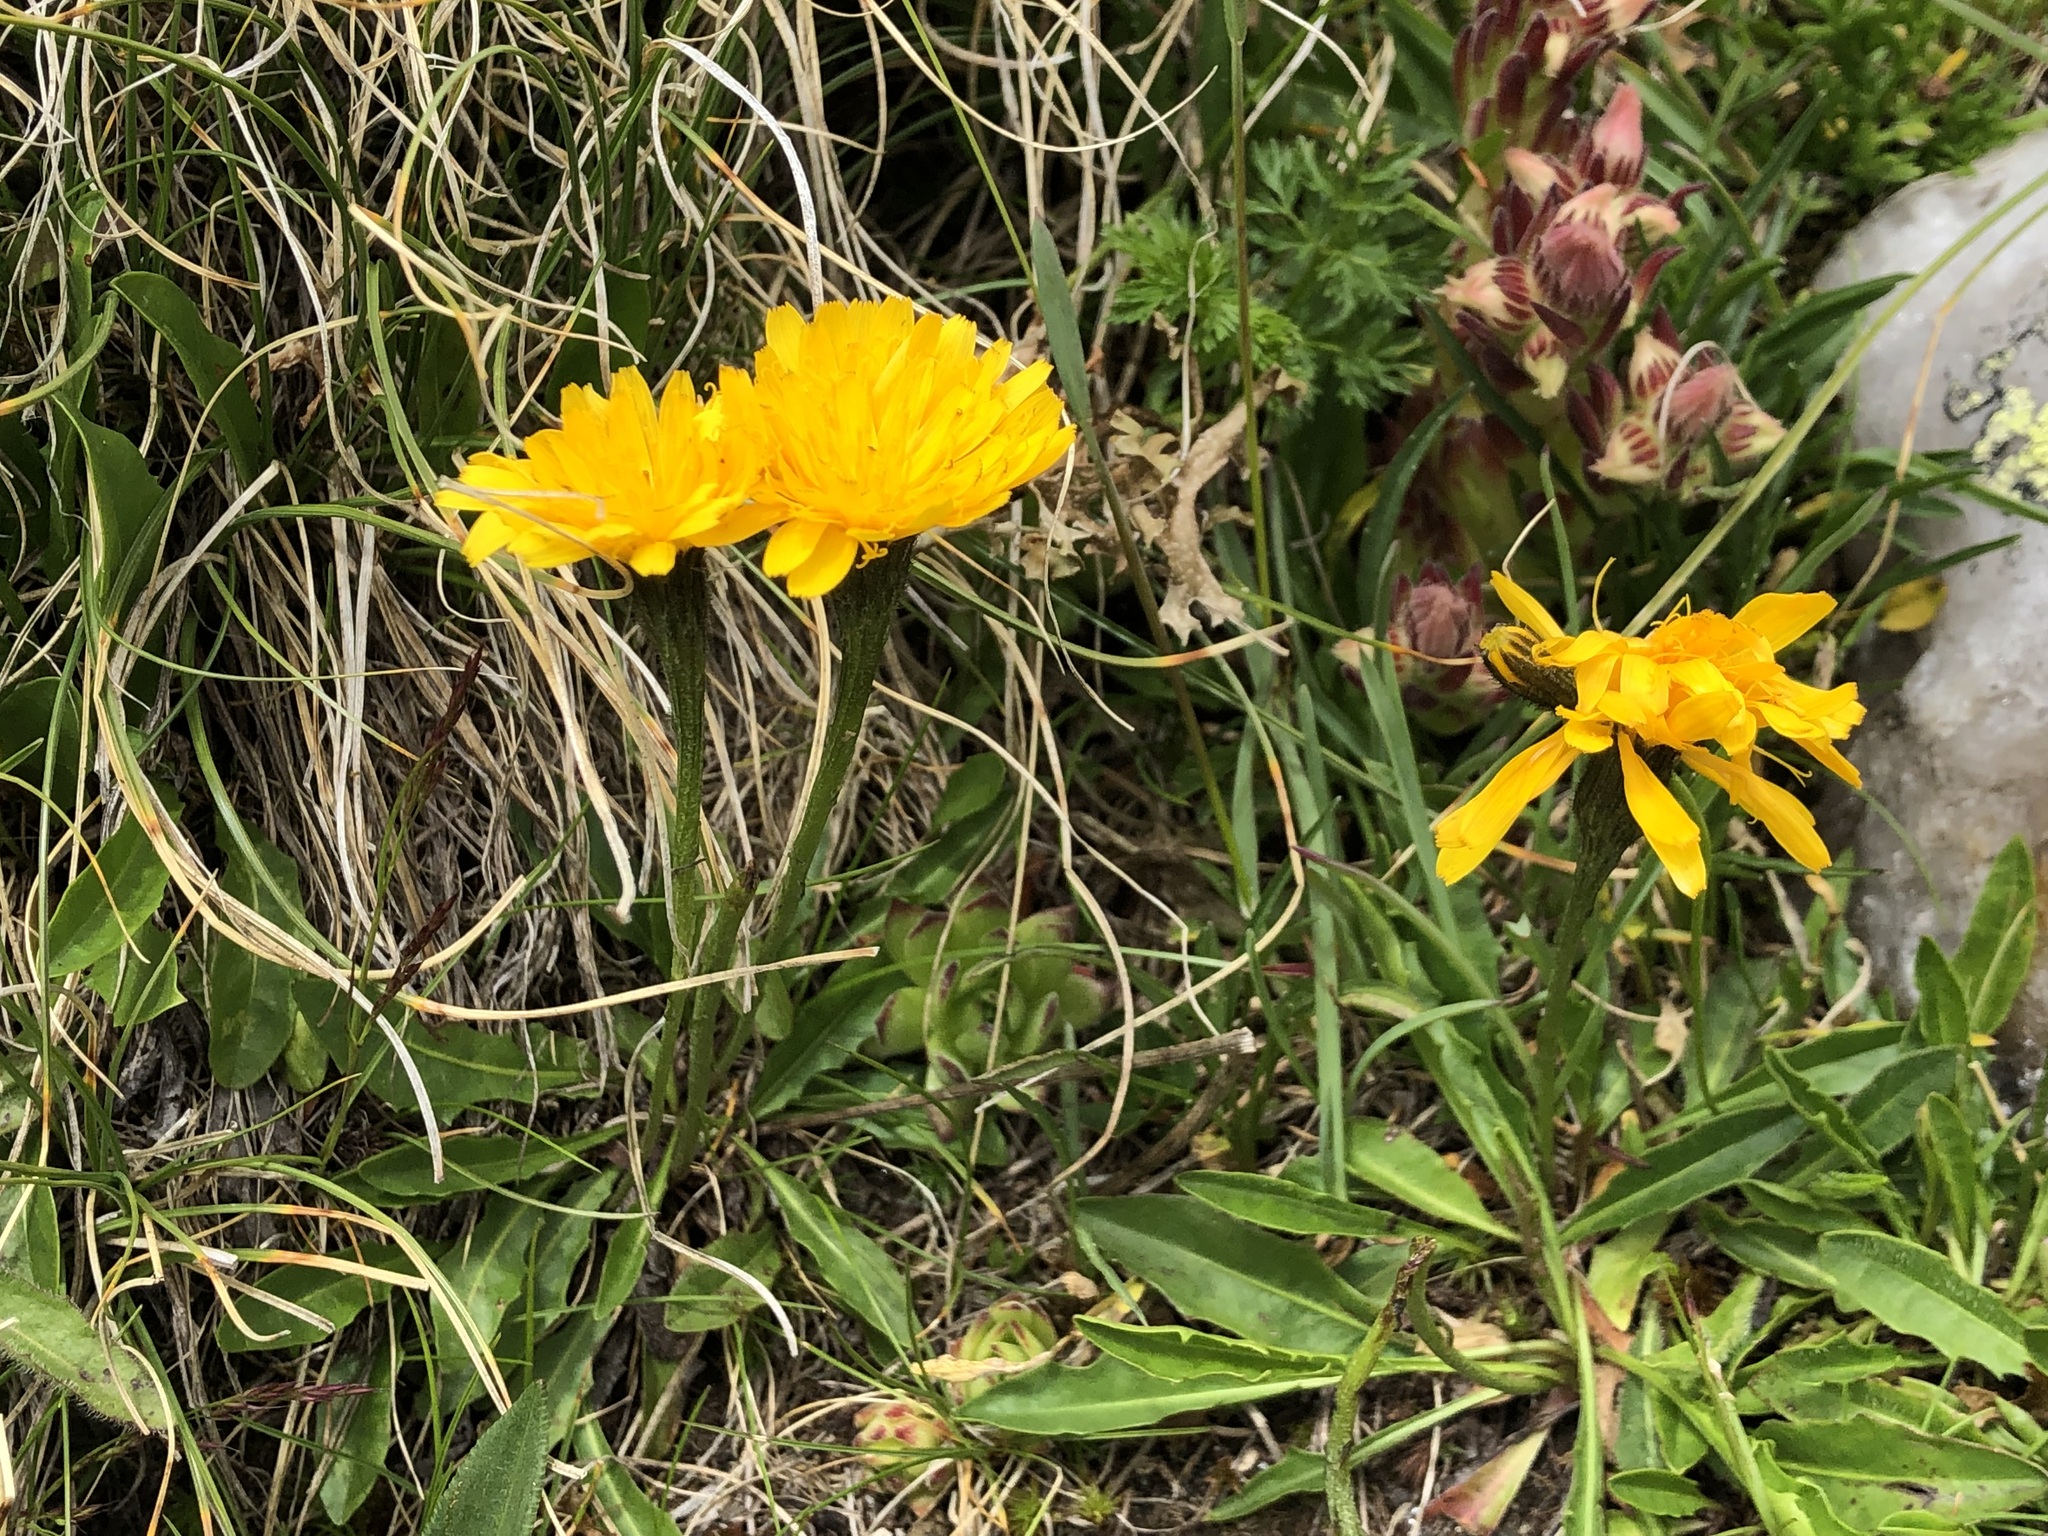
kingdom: Plantae
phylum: Tracheophyta
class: Magnoliopsida
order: Asterales
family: Asteraceae
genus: Scorzoneroides
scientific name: Scorzoneroides helvetica
